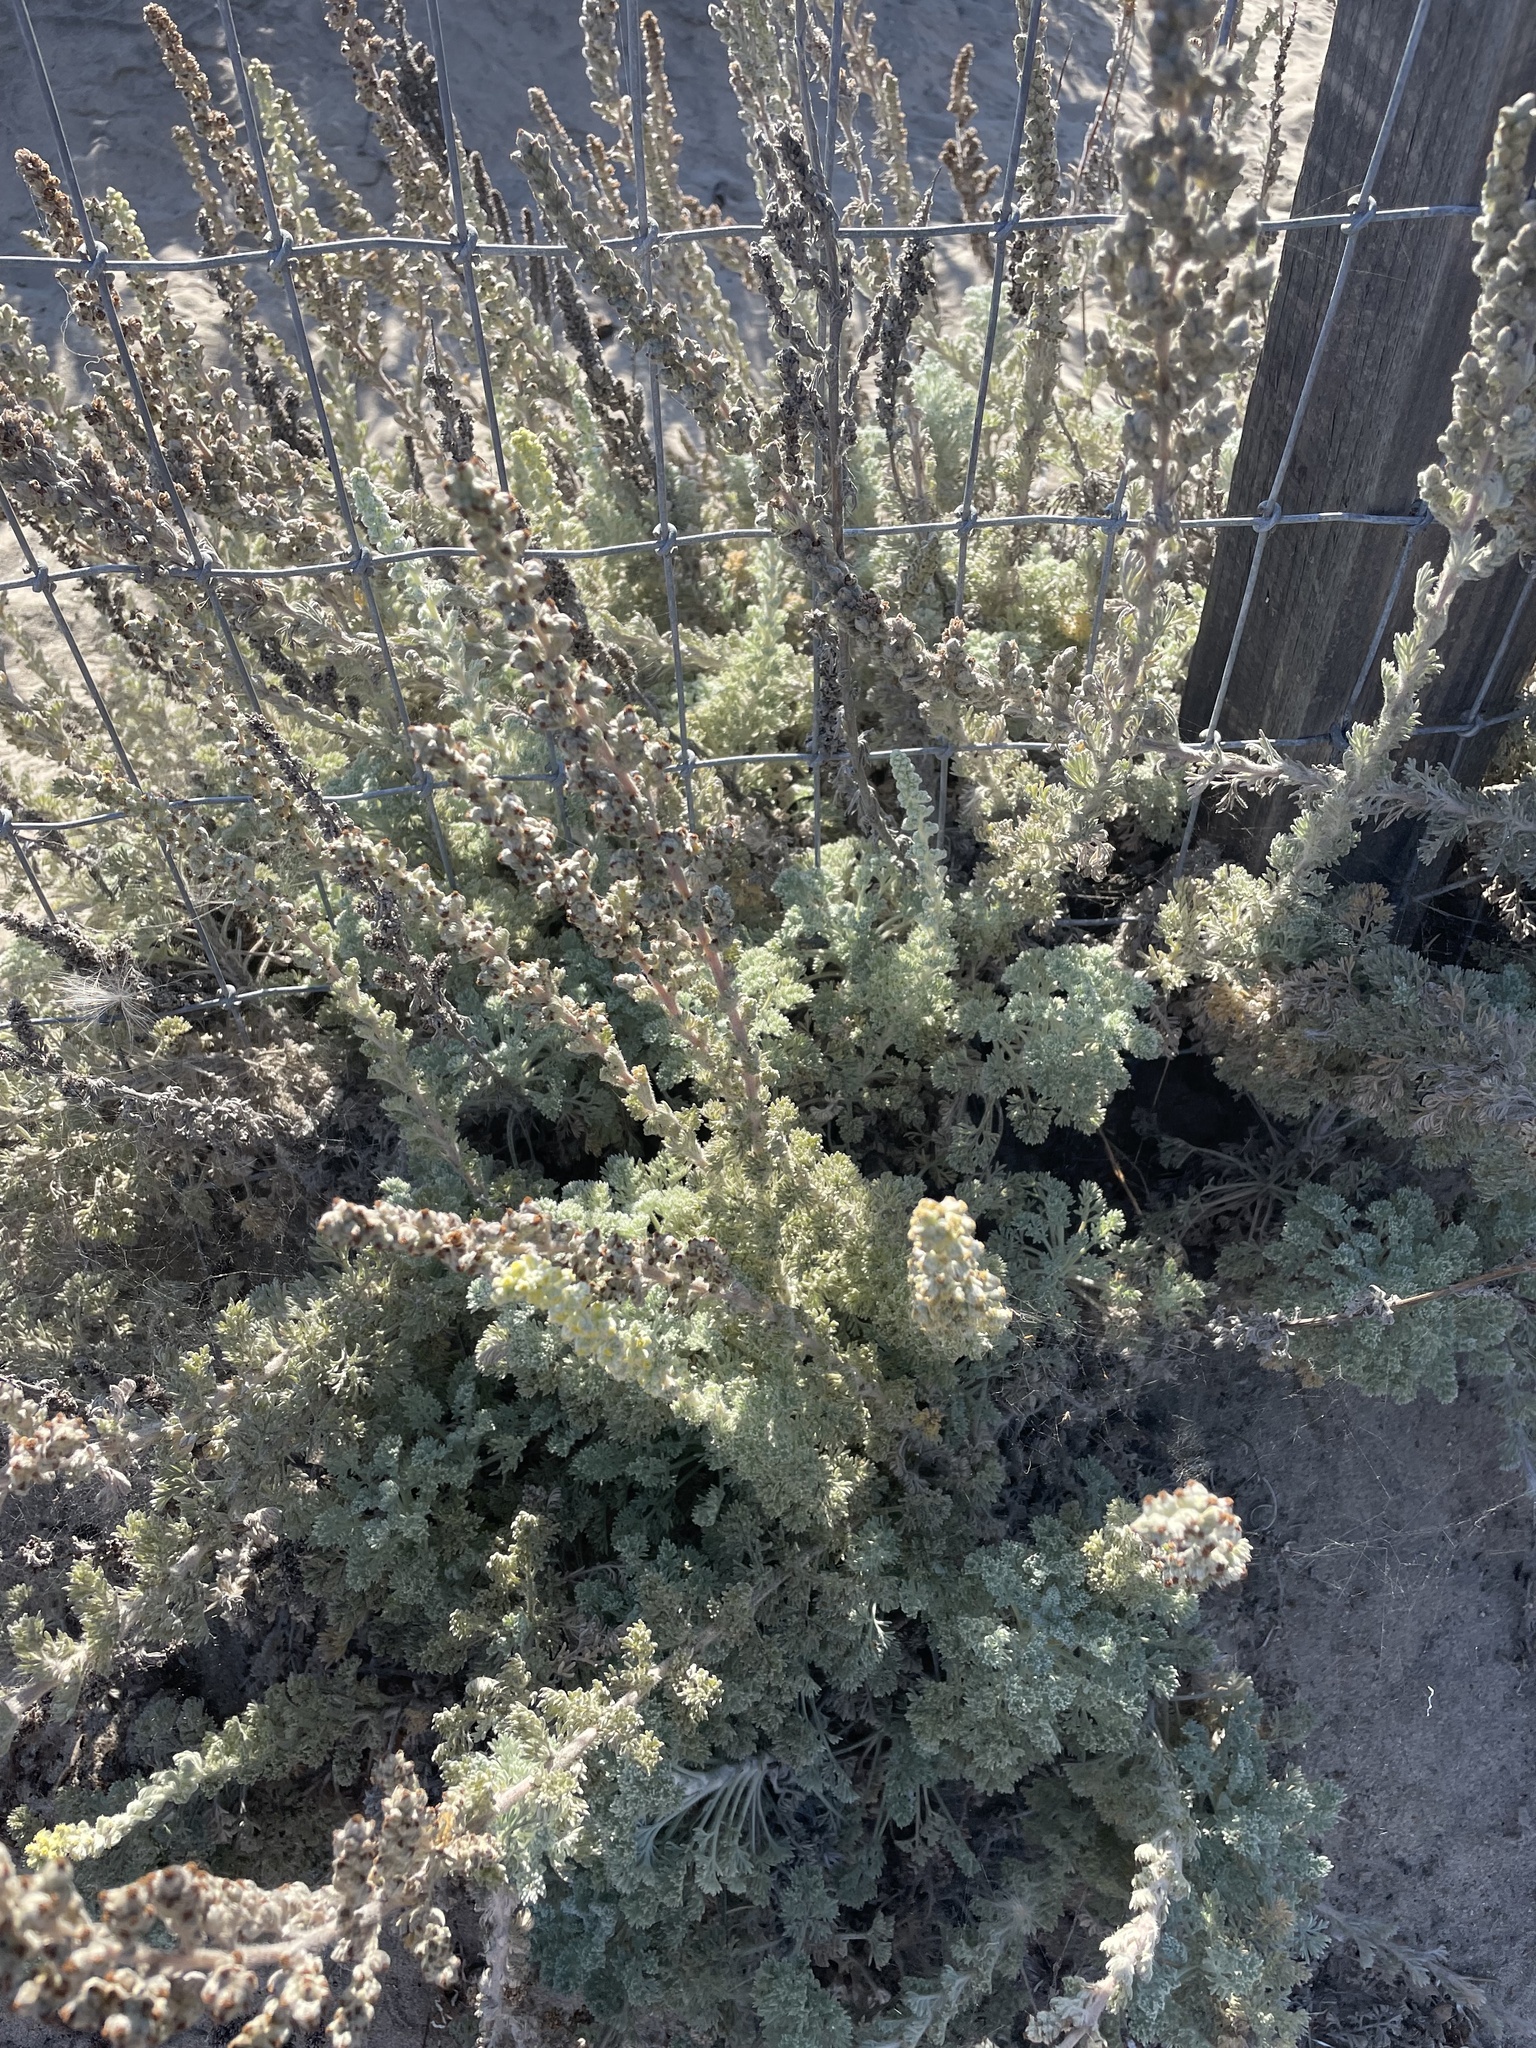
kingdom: Plantae
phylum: Tracheophyta
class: Magnoliopsida
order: Asterales
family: Asteraceae
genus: Artemisia
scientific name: Artemisia pycnocephala
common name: Coastal sagewort
